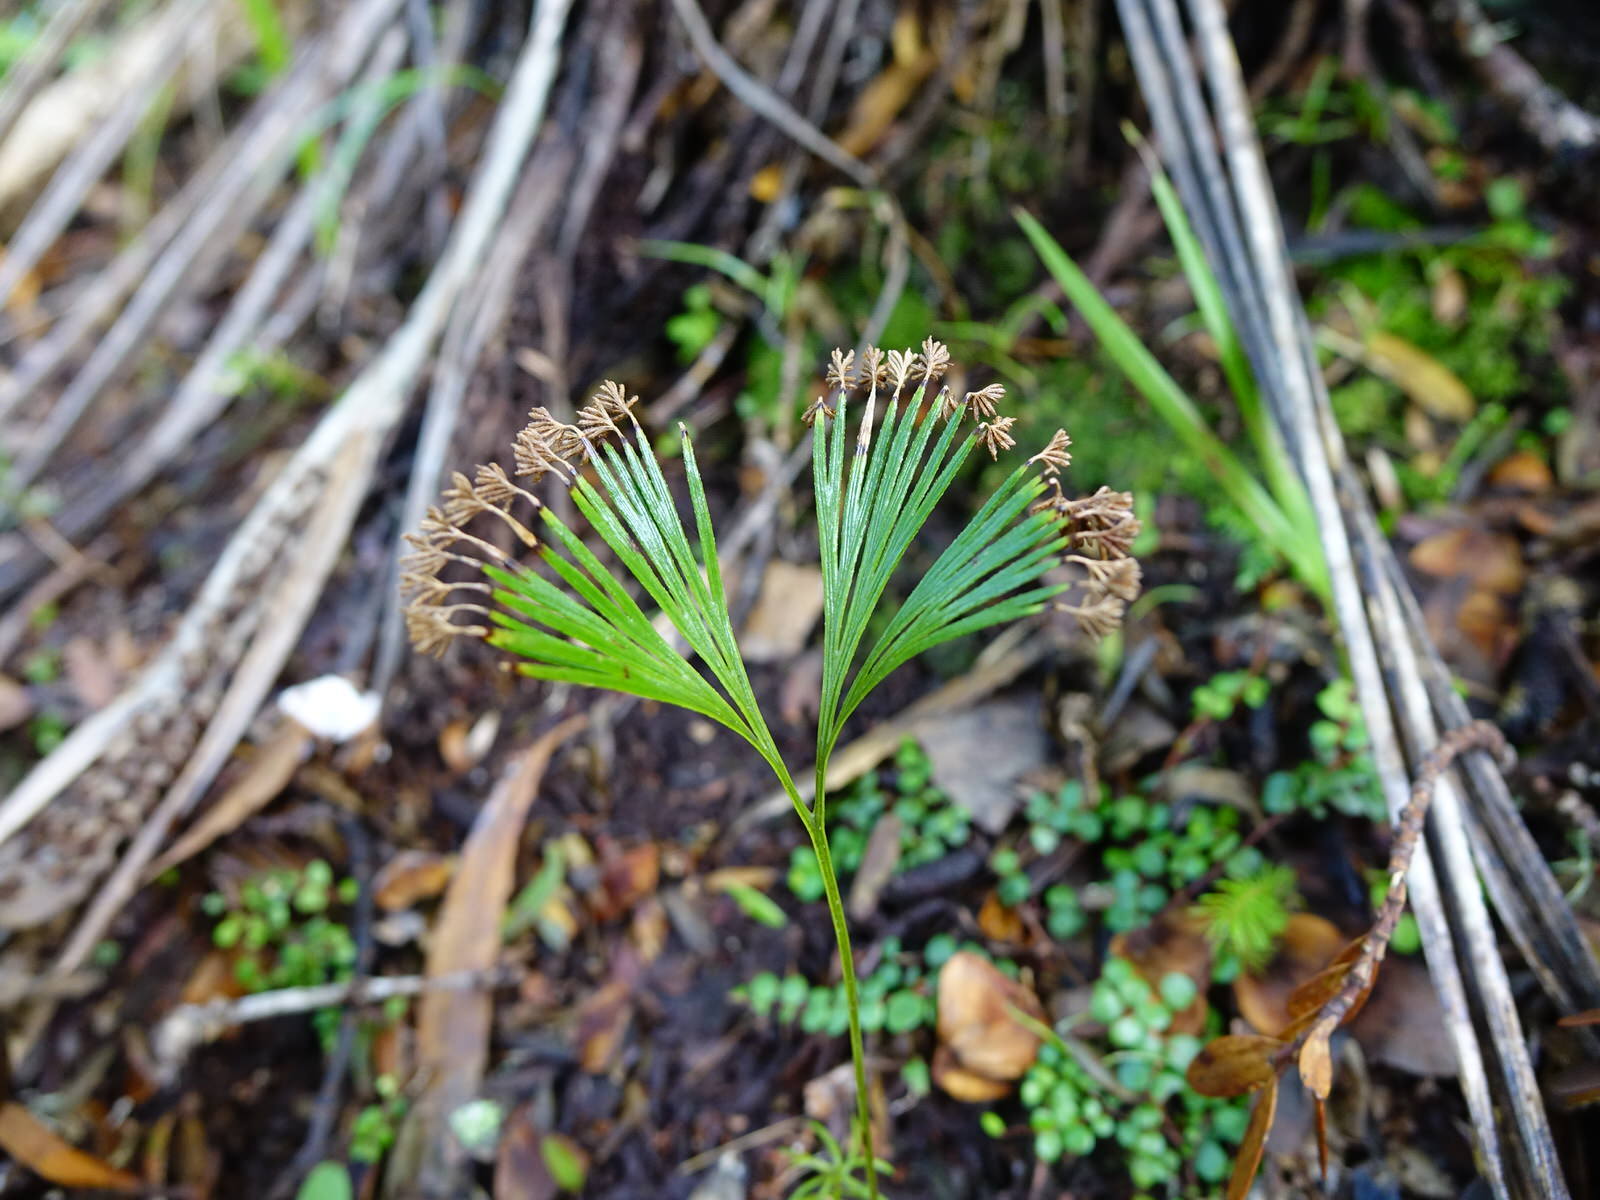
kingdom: Plantae
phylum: Tracheophyta
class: Polypodiopsida
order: Schizaeales
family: Schizaeaceae
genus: Schizaea
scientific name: Schizaea dichotoma
